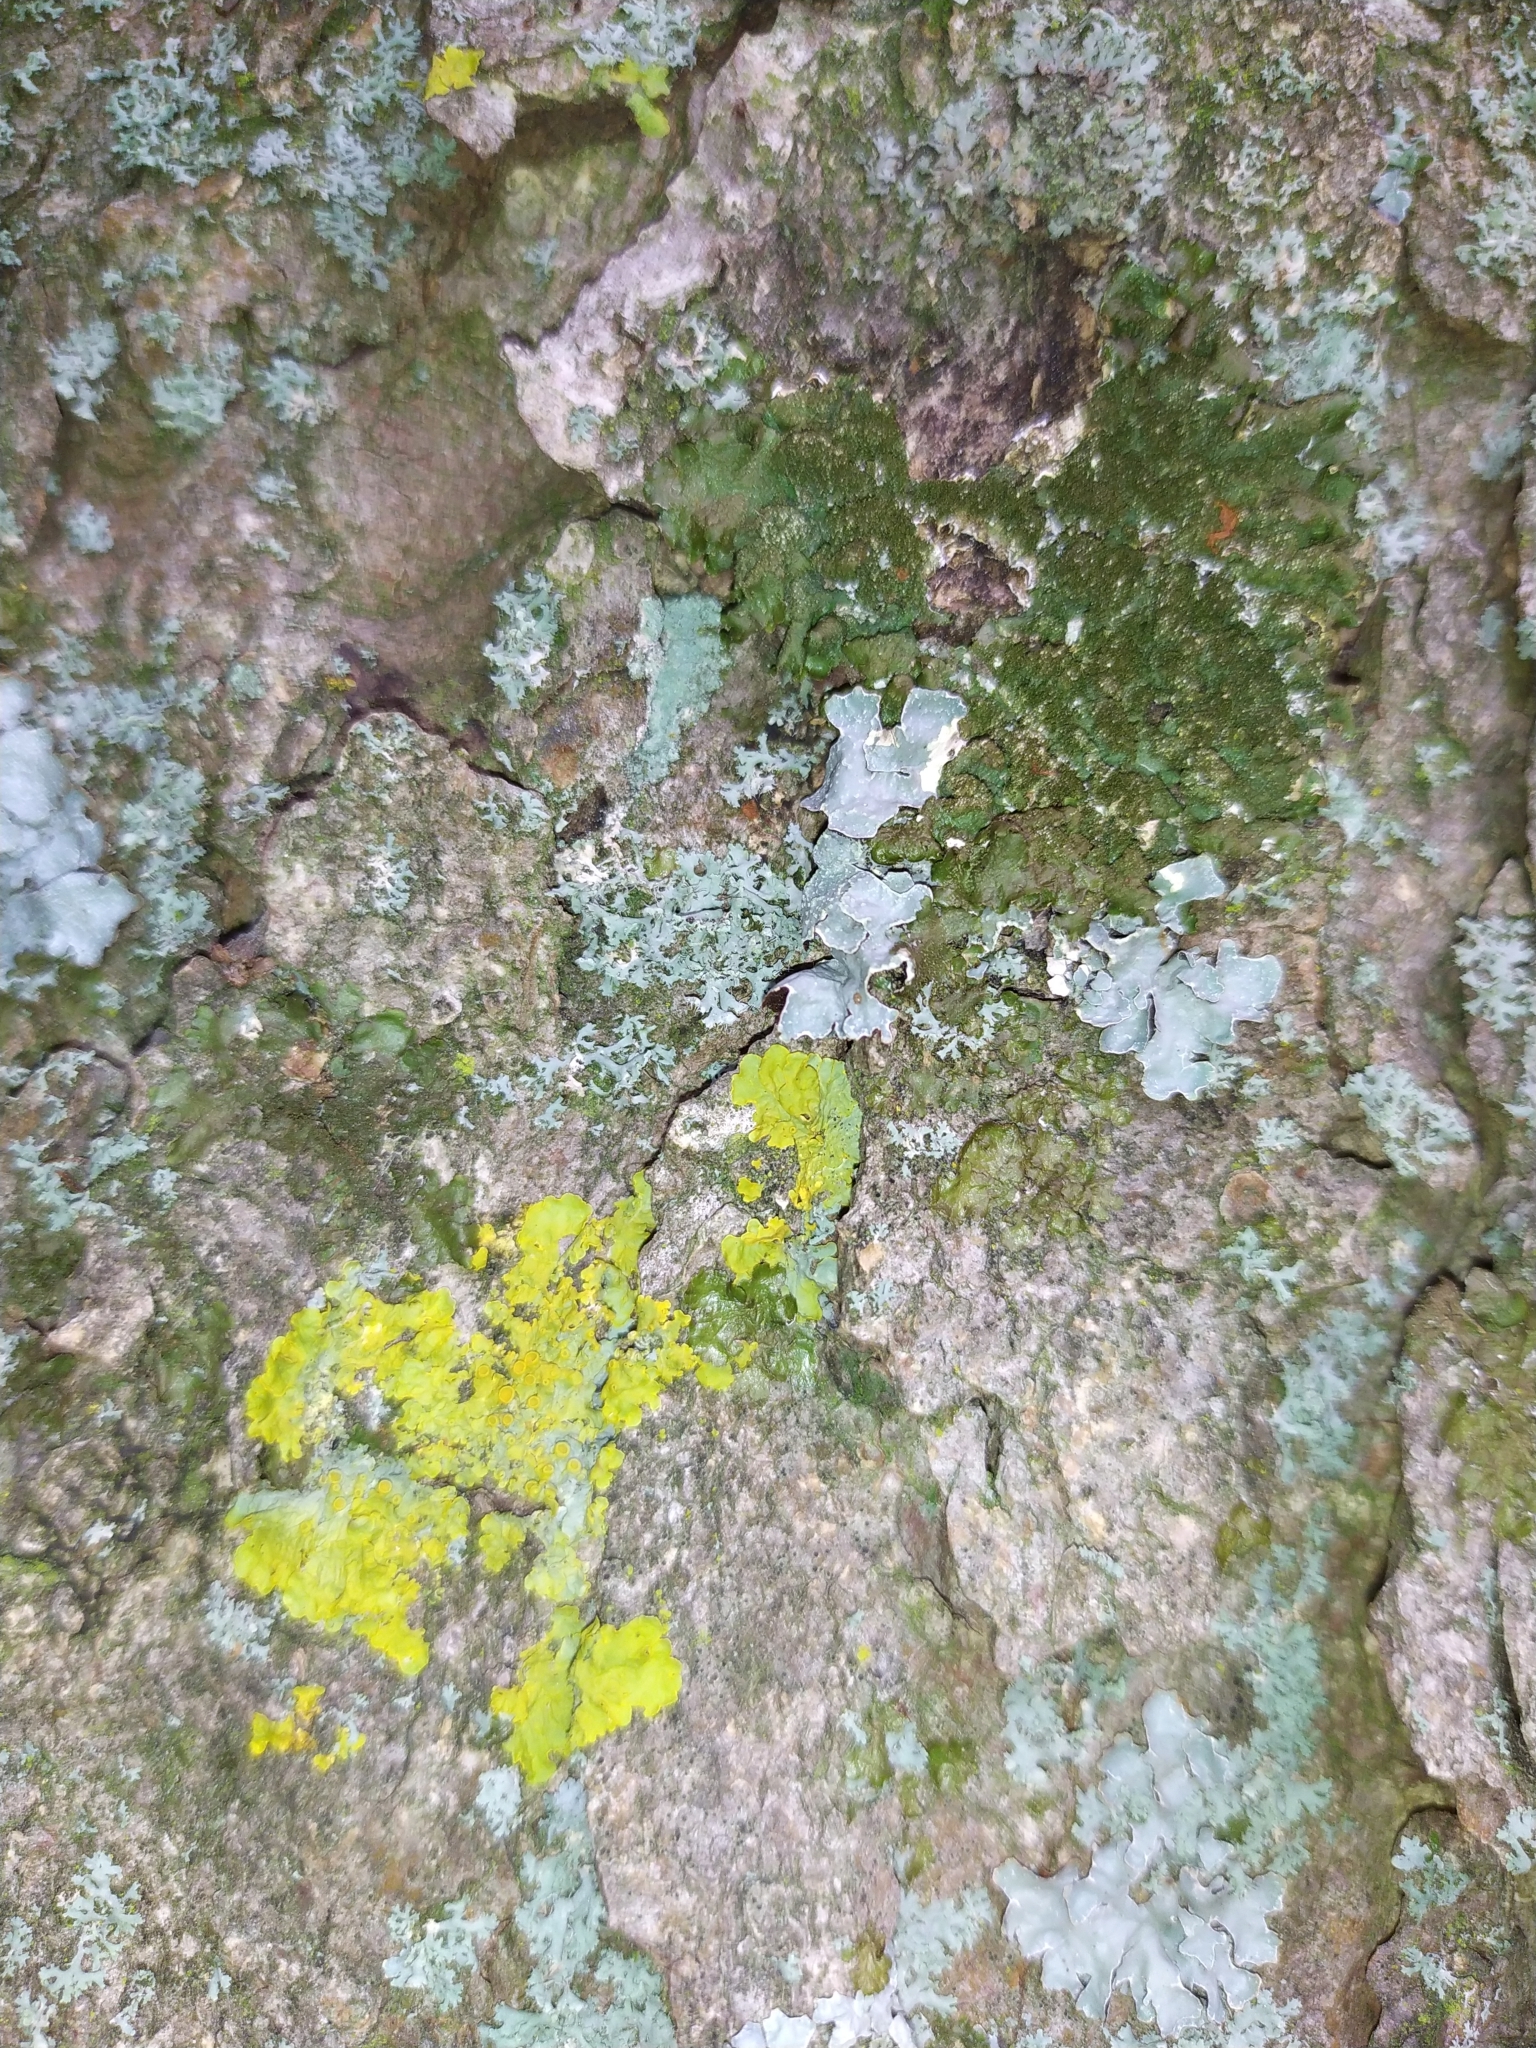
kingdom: Fungi
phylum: Ascomycota
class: Lecanoromycetes
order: Lecanorales
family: Parmeliaceae
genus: Parmelia
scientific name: Parmelia sulcata
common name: Netted shield lichen
